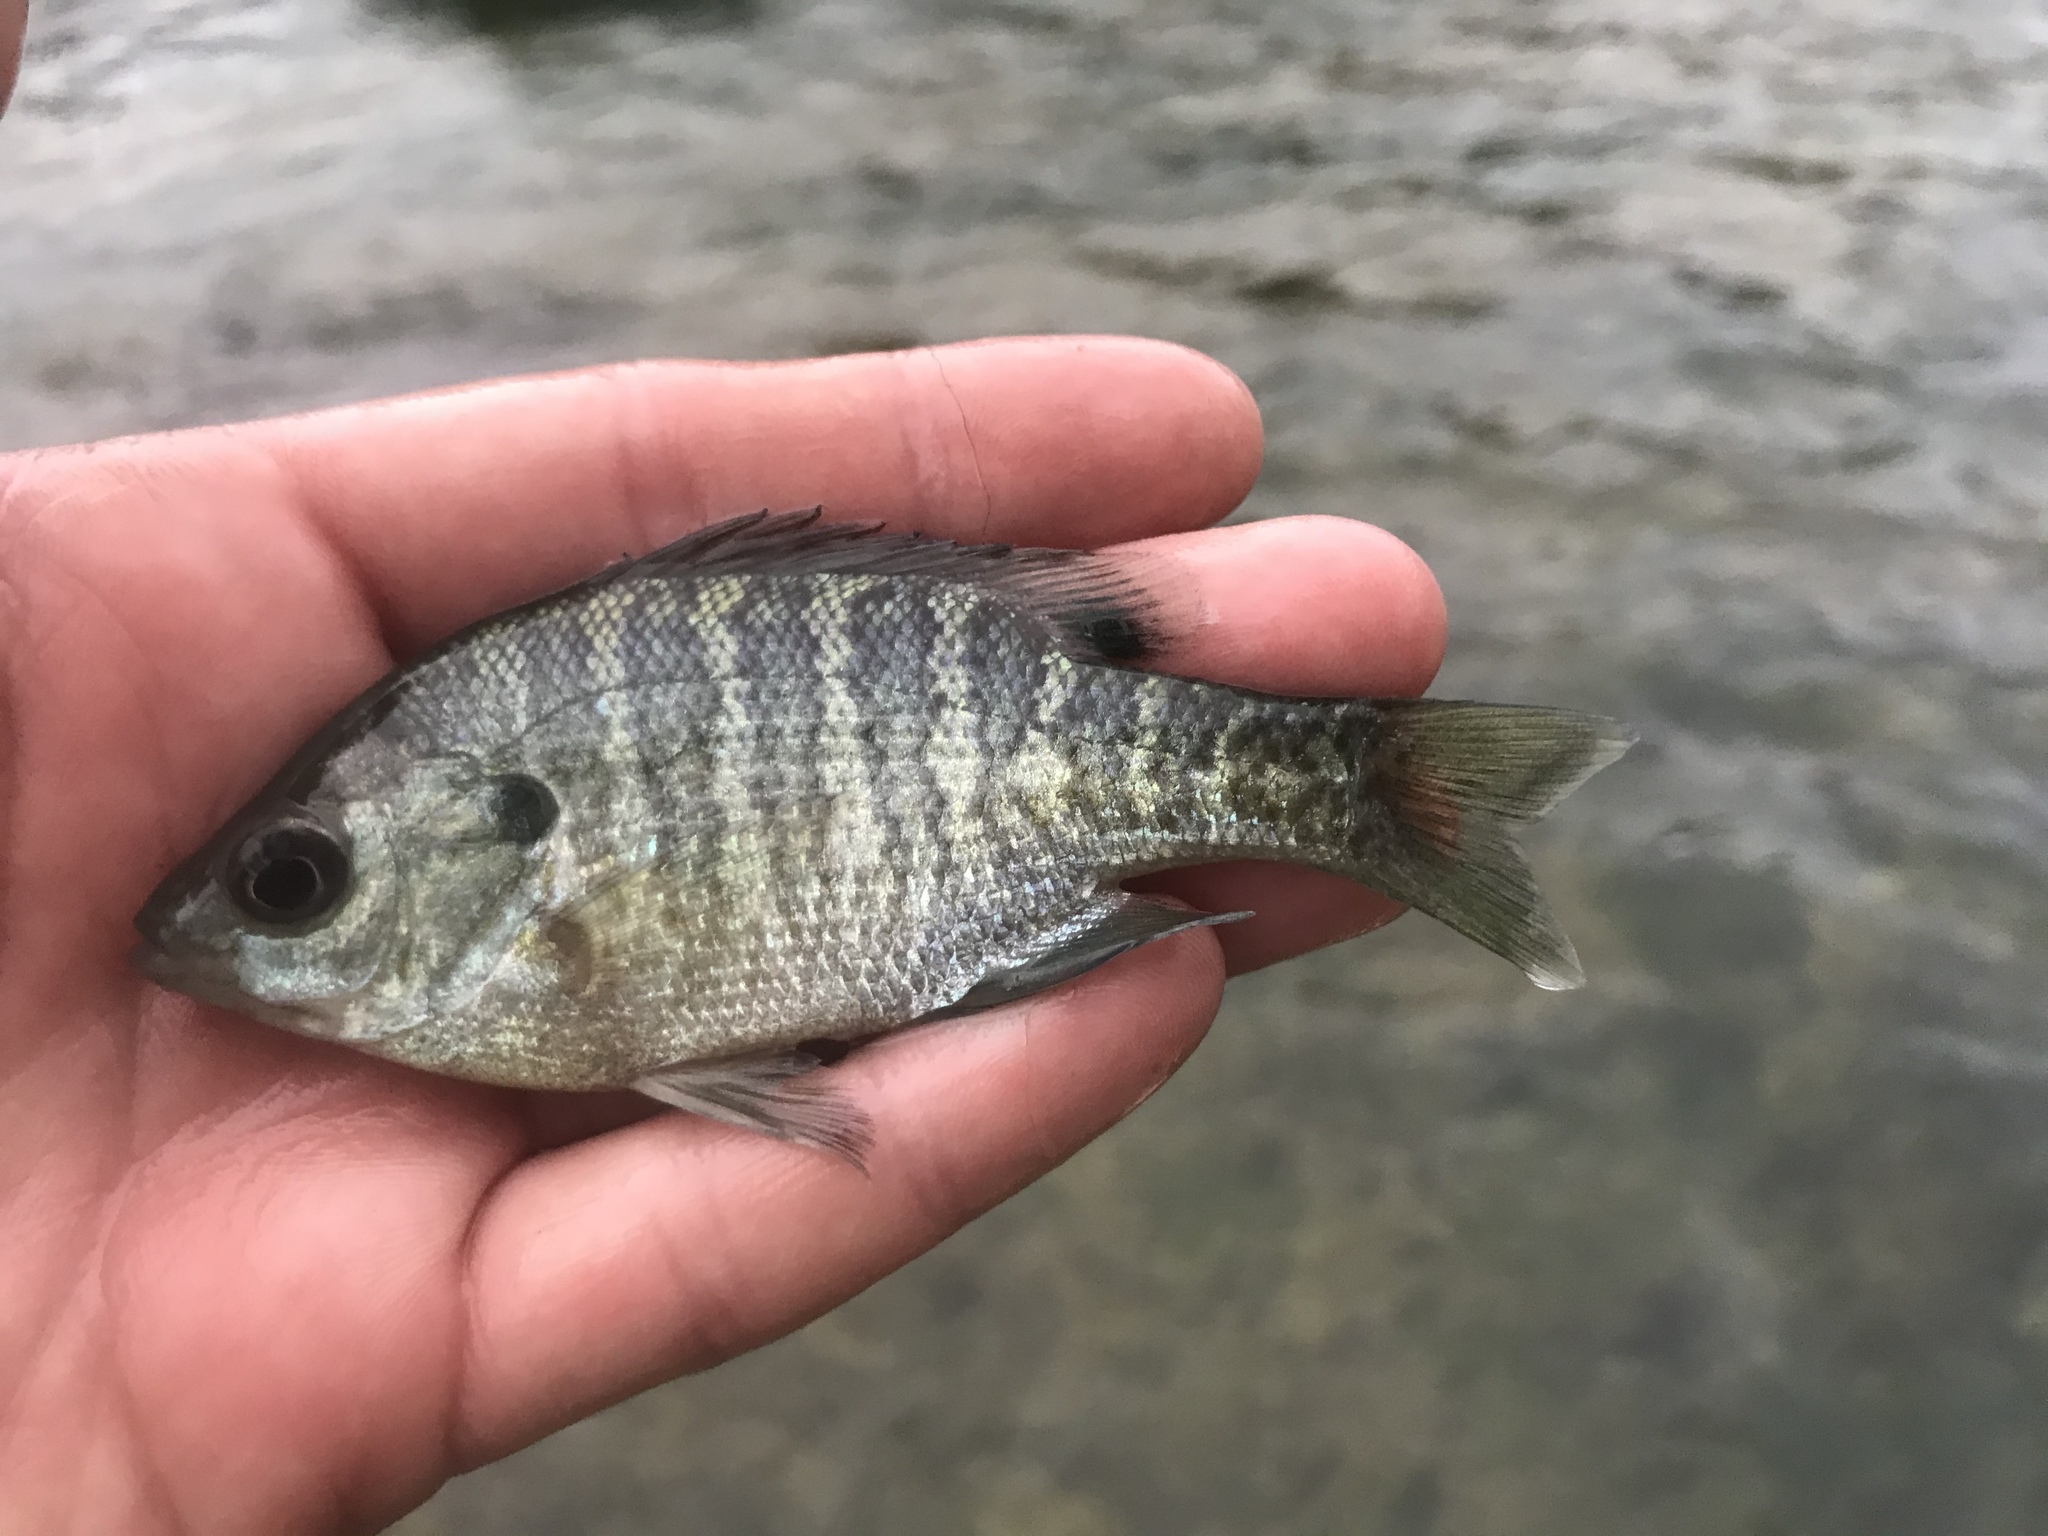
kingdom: Animalia
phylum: Chordata
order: Perciformes
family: Centrarchidae
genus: Lepomis
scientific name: Lepomis macrochirus
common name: Bluegill
